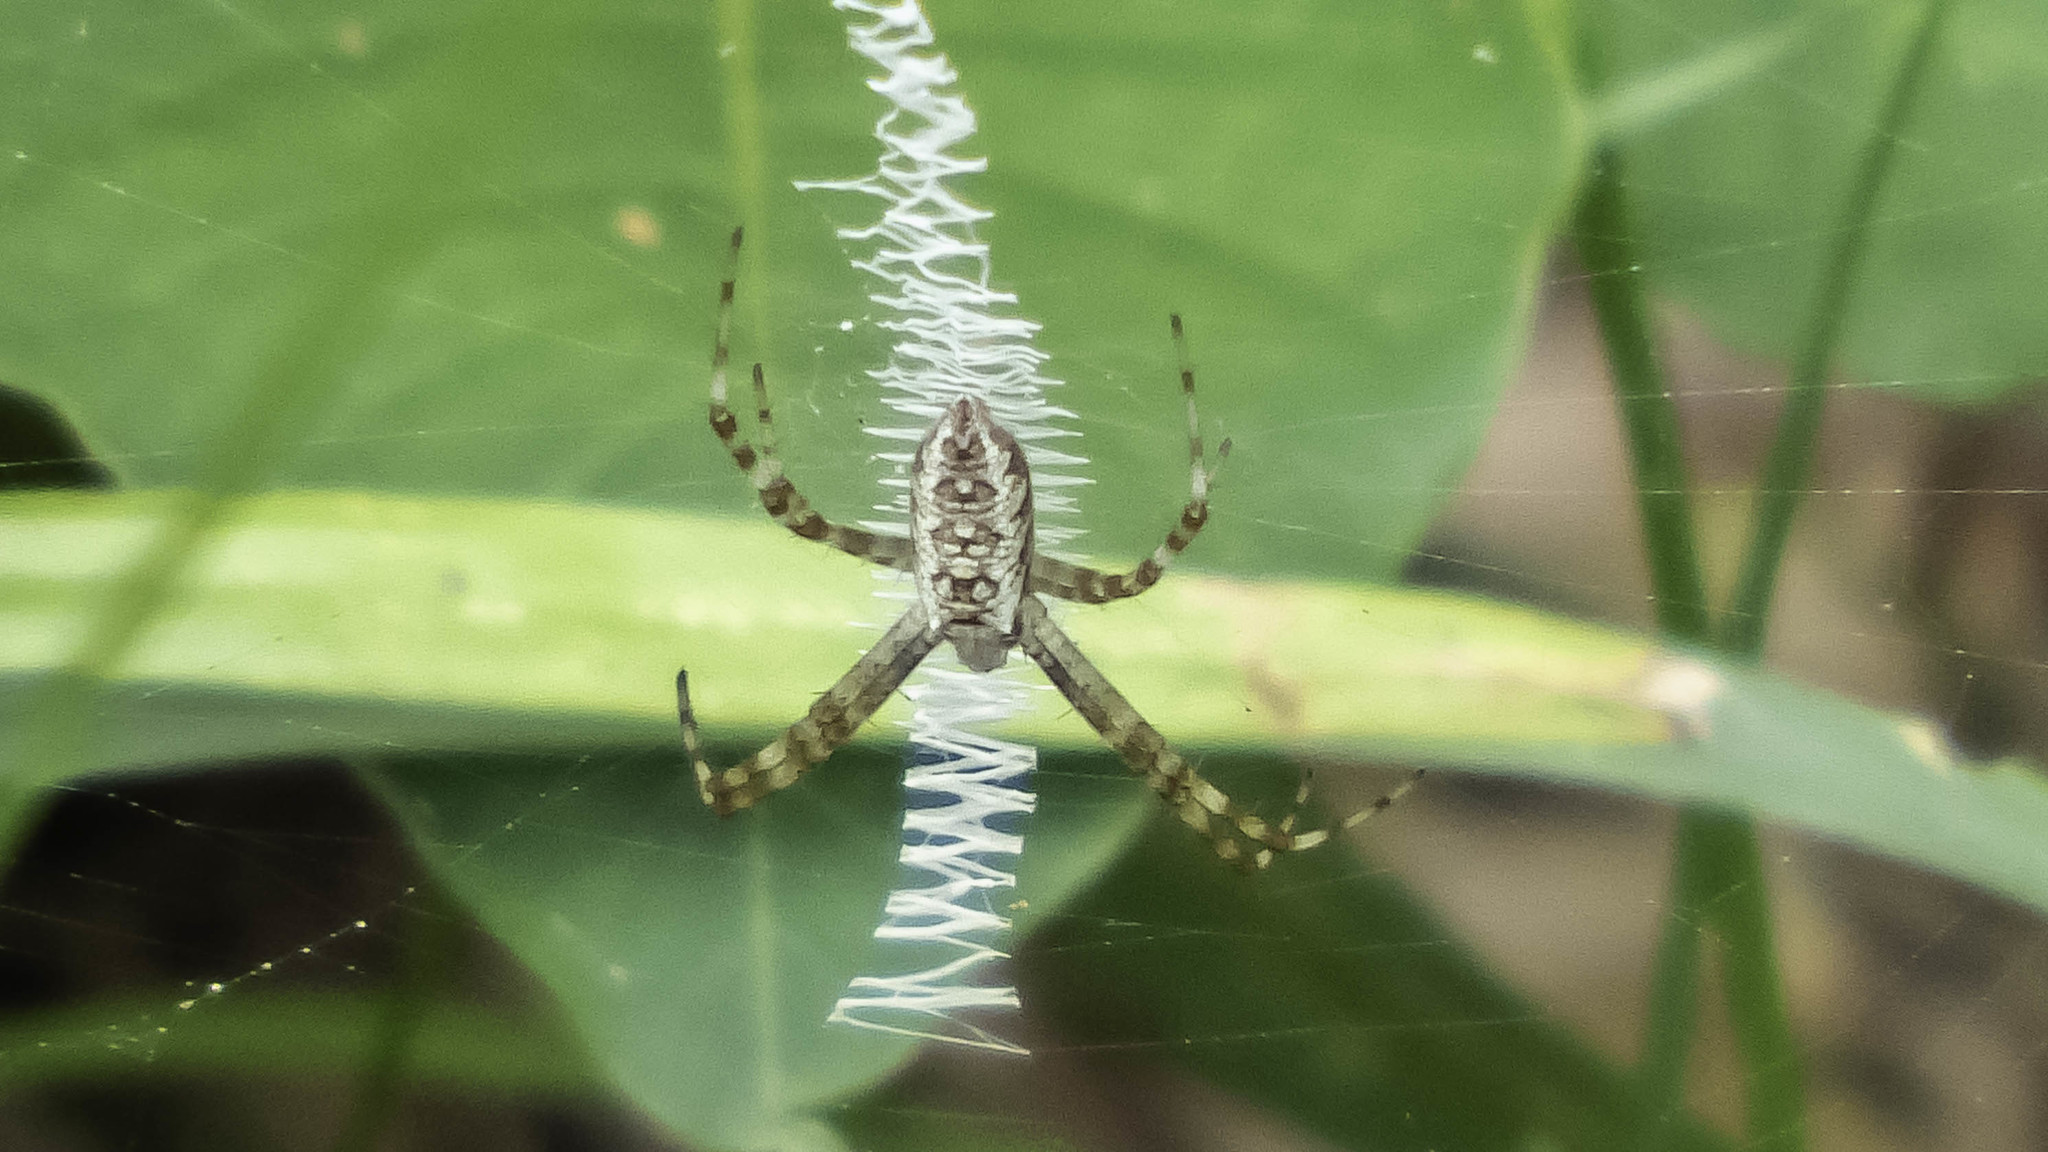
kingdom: Animalia
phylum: Arthropoda
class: Arachnida
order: Araneae
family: Araneidae
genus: Argiope
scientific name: Argiope aurantia
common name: Orb weavers
